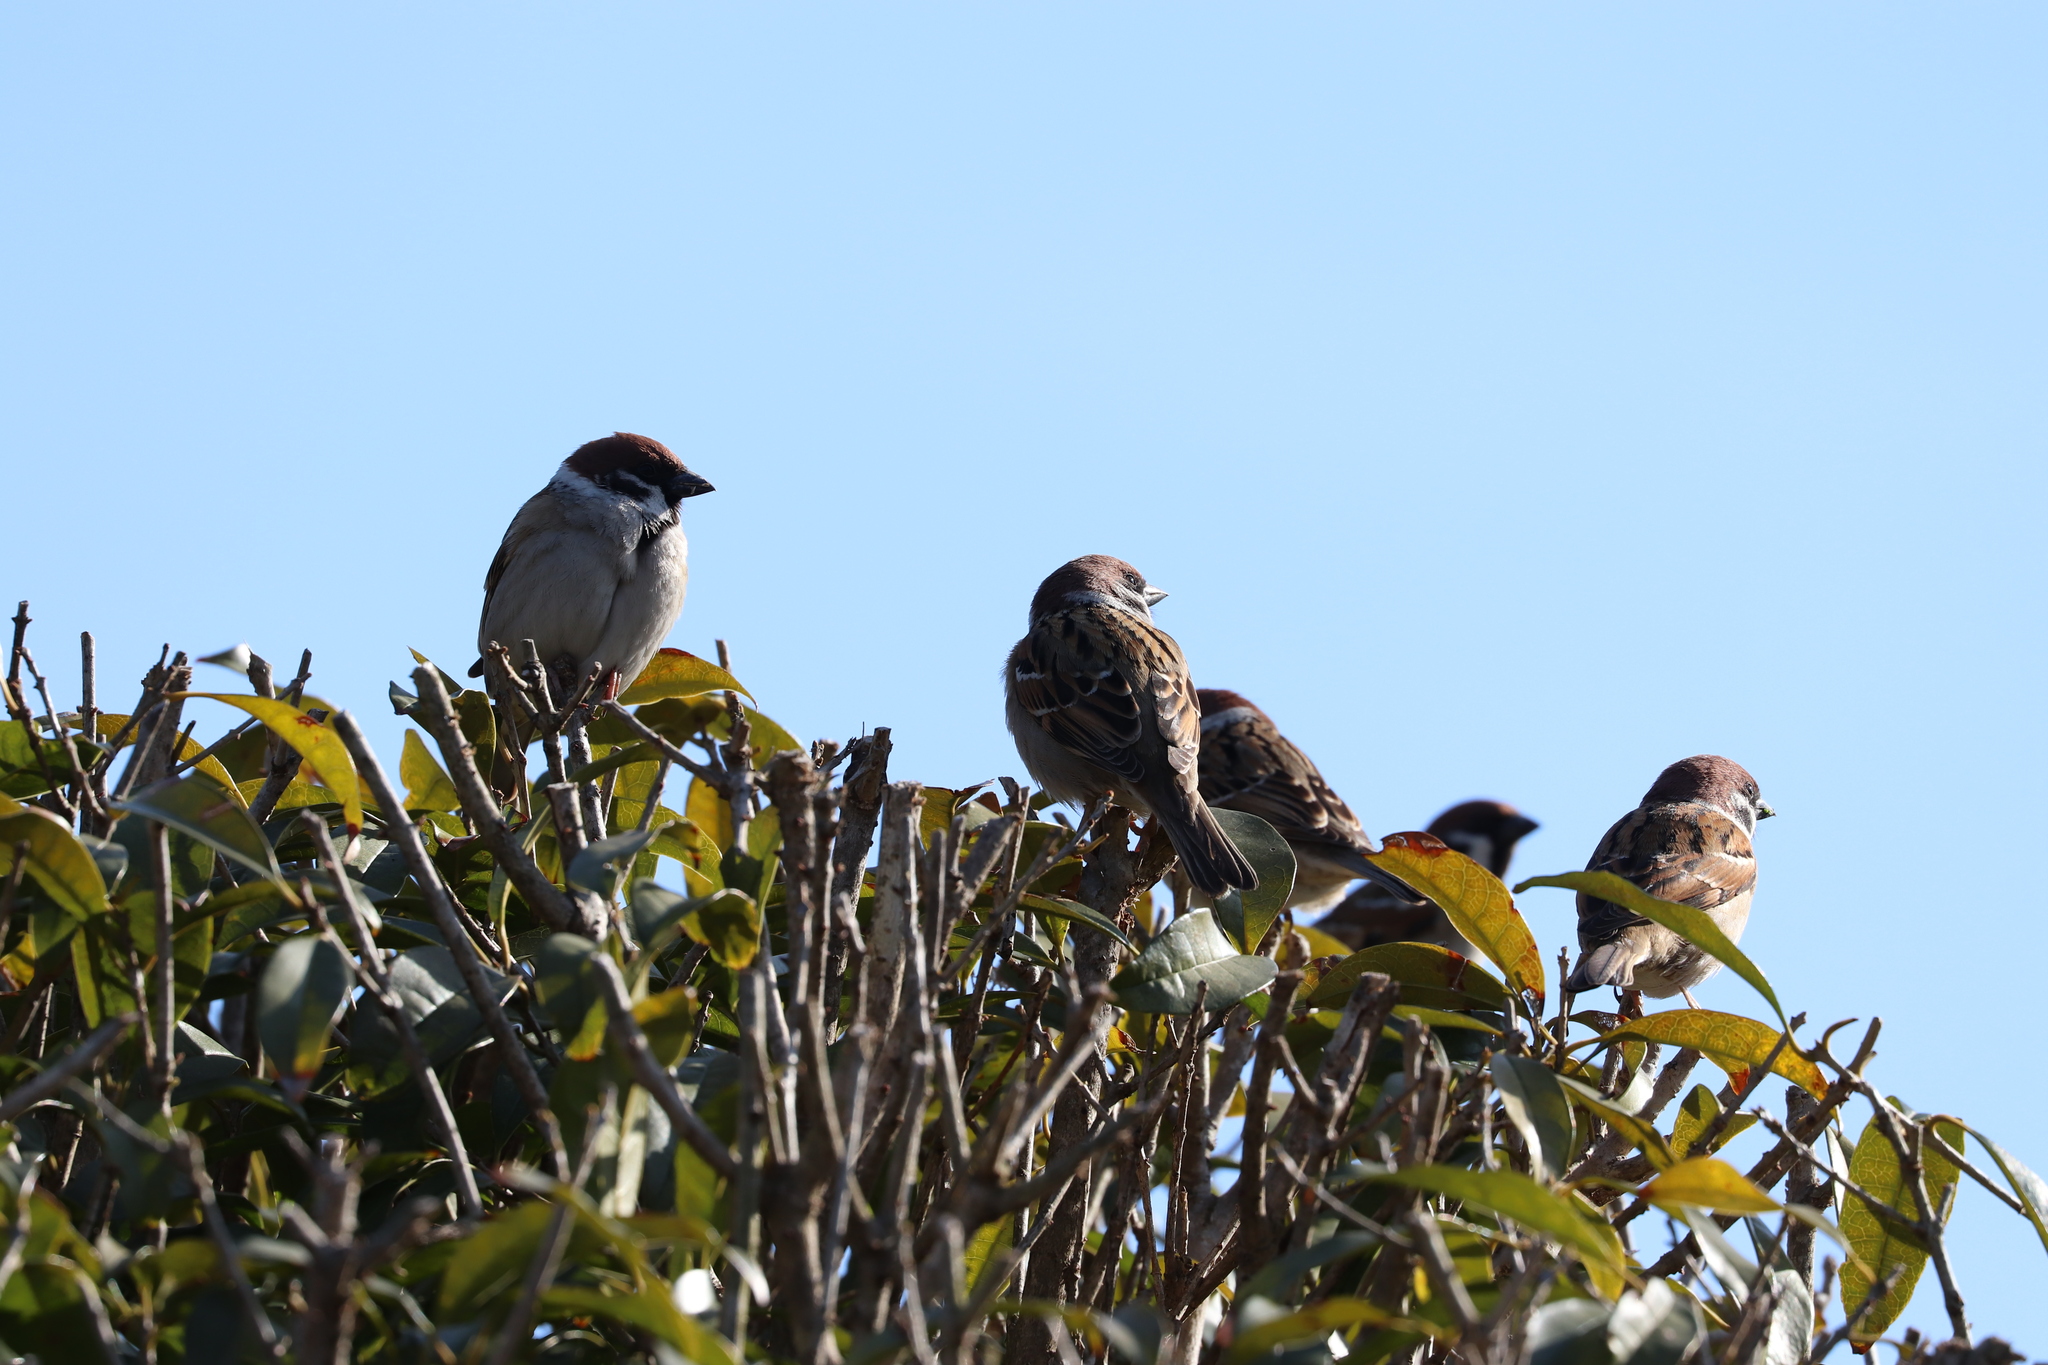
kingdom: Animalia
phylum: Chordata
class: Aves
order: Passeriformes
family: Passeridae
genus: Passer
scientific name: Passer montanus
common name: Eurasian tree sparrow
